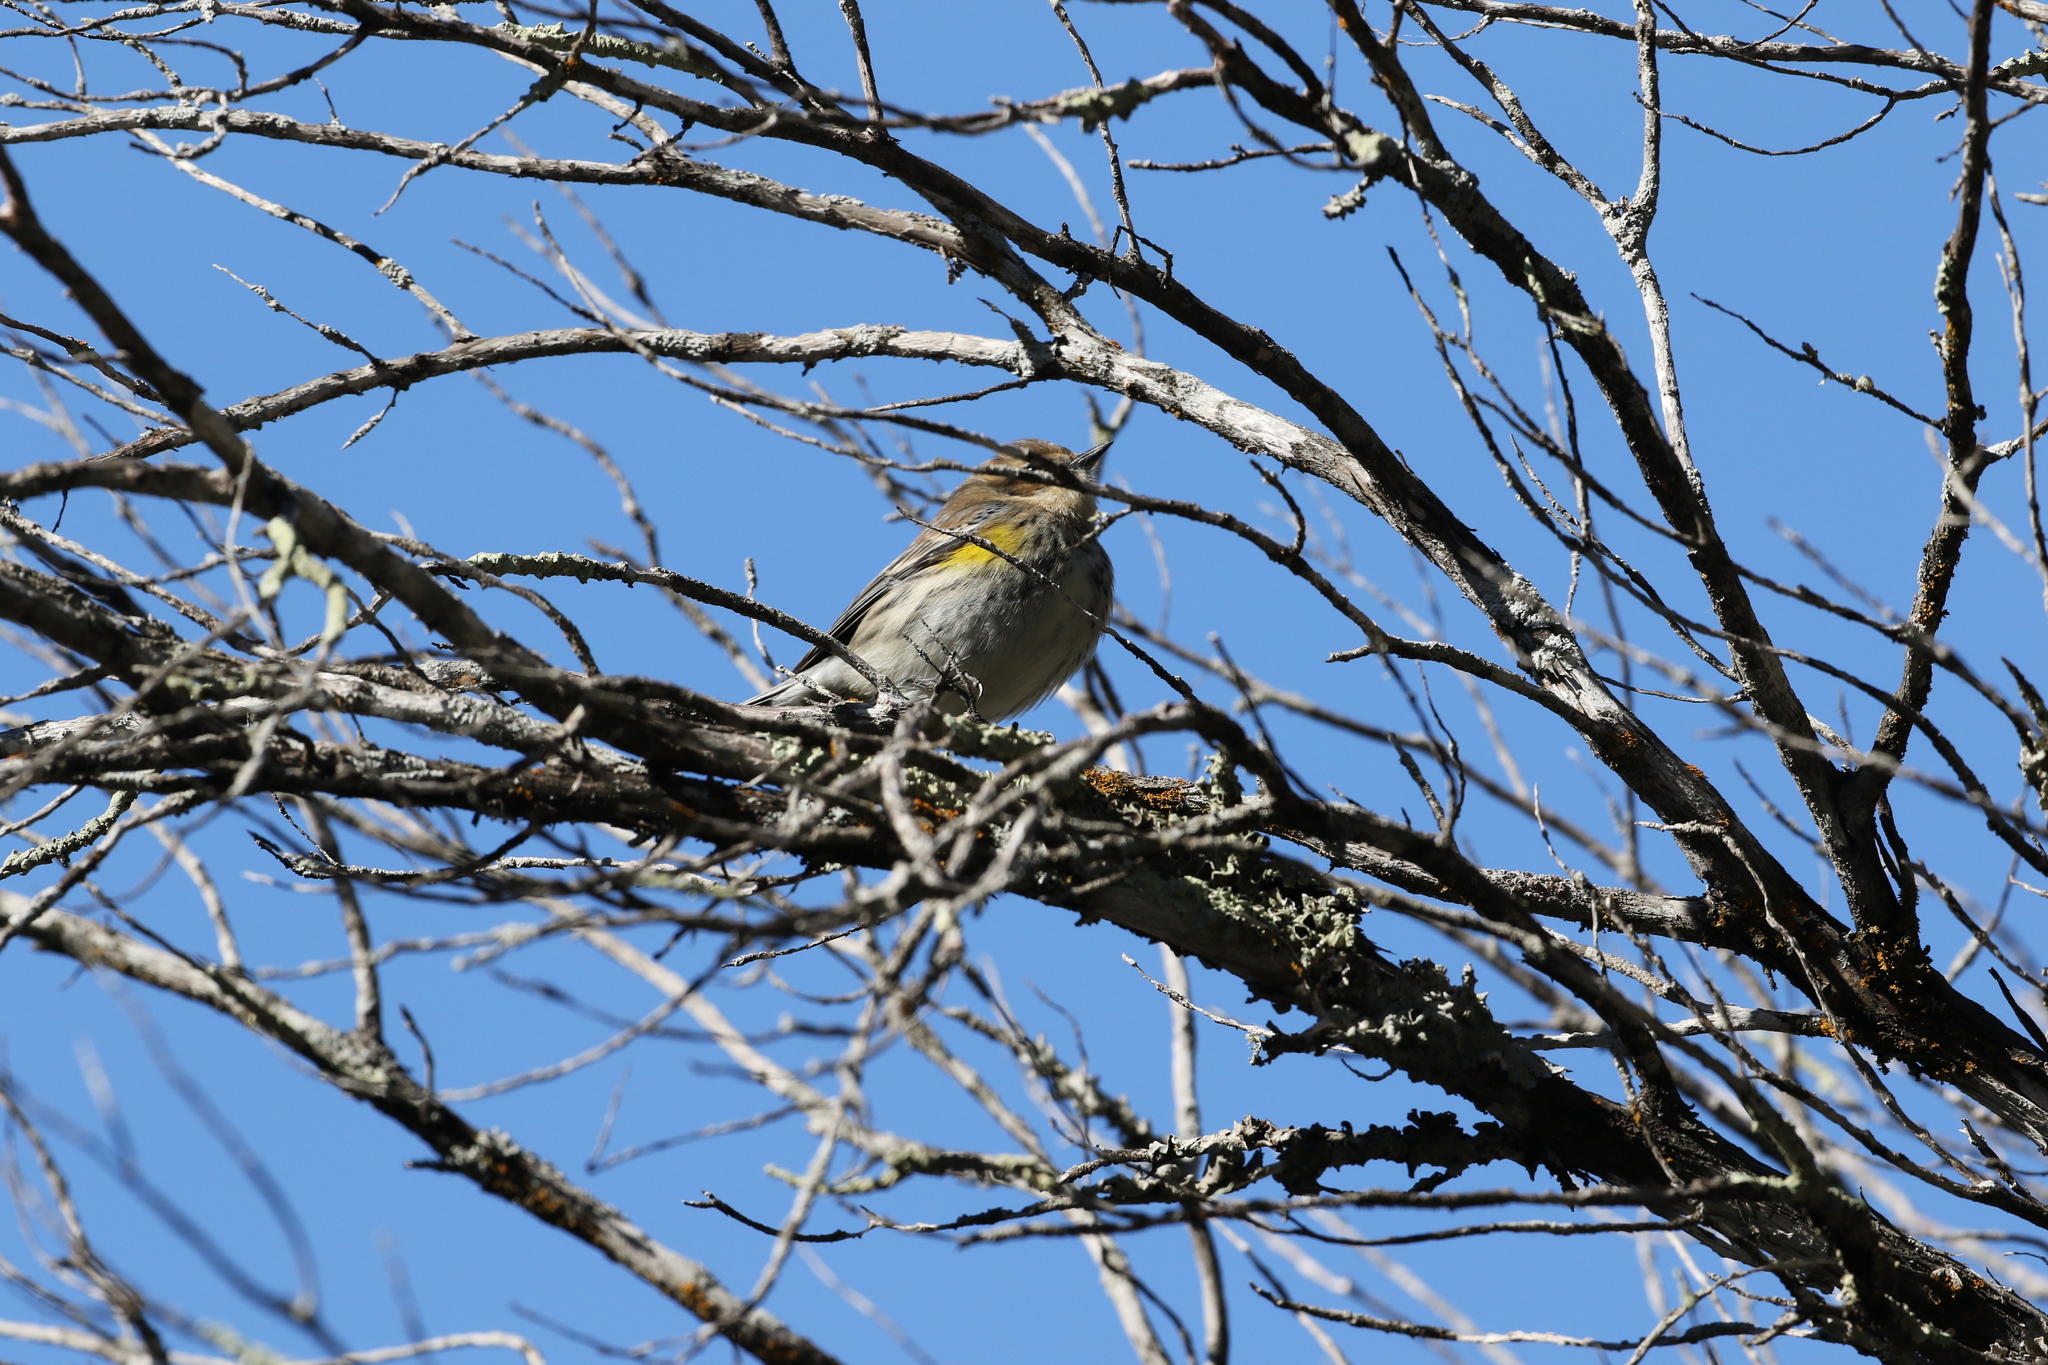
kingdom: Animalia
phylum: Chordata
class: Aves
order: Passeriformes
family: Parulidae
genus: Setophaga
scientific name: Setophaga coronata
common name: Myrtle warbler
